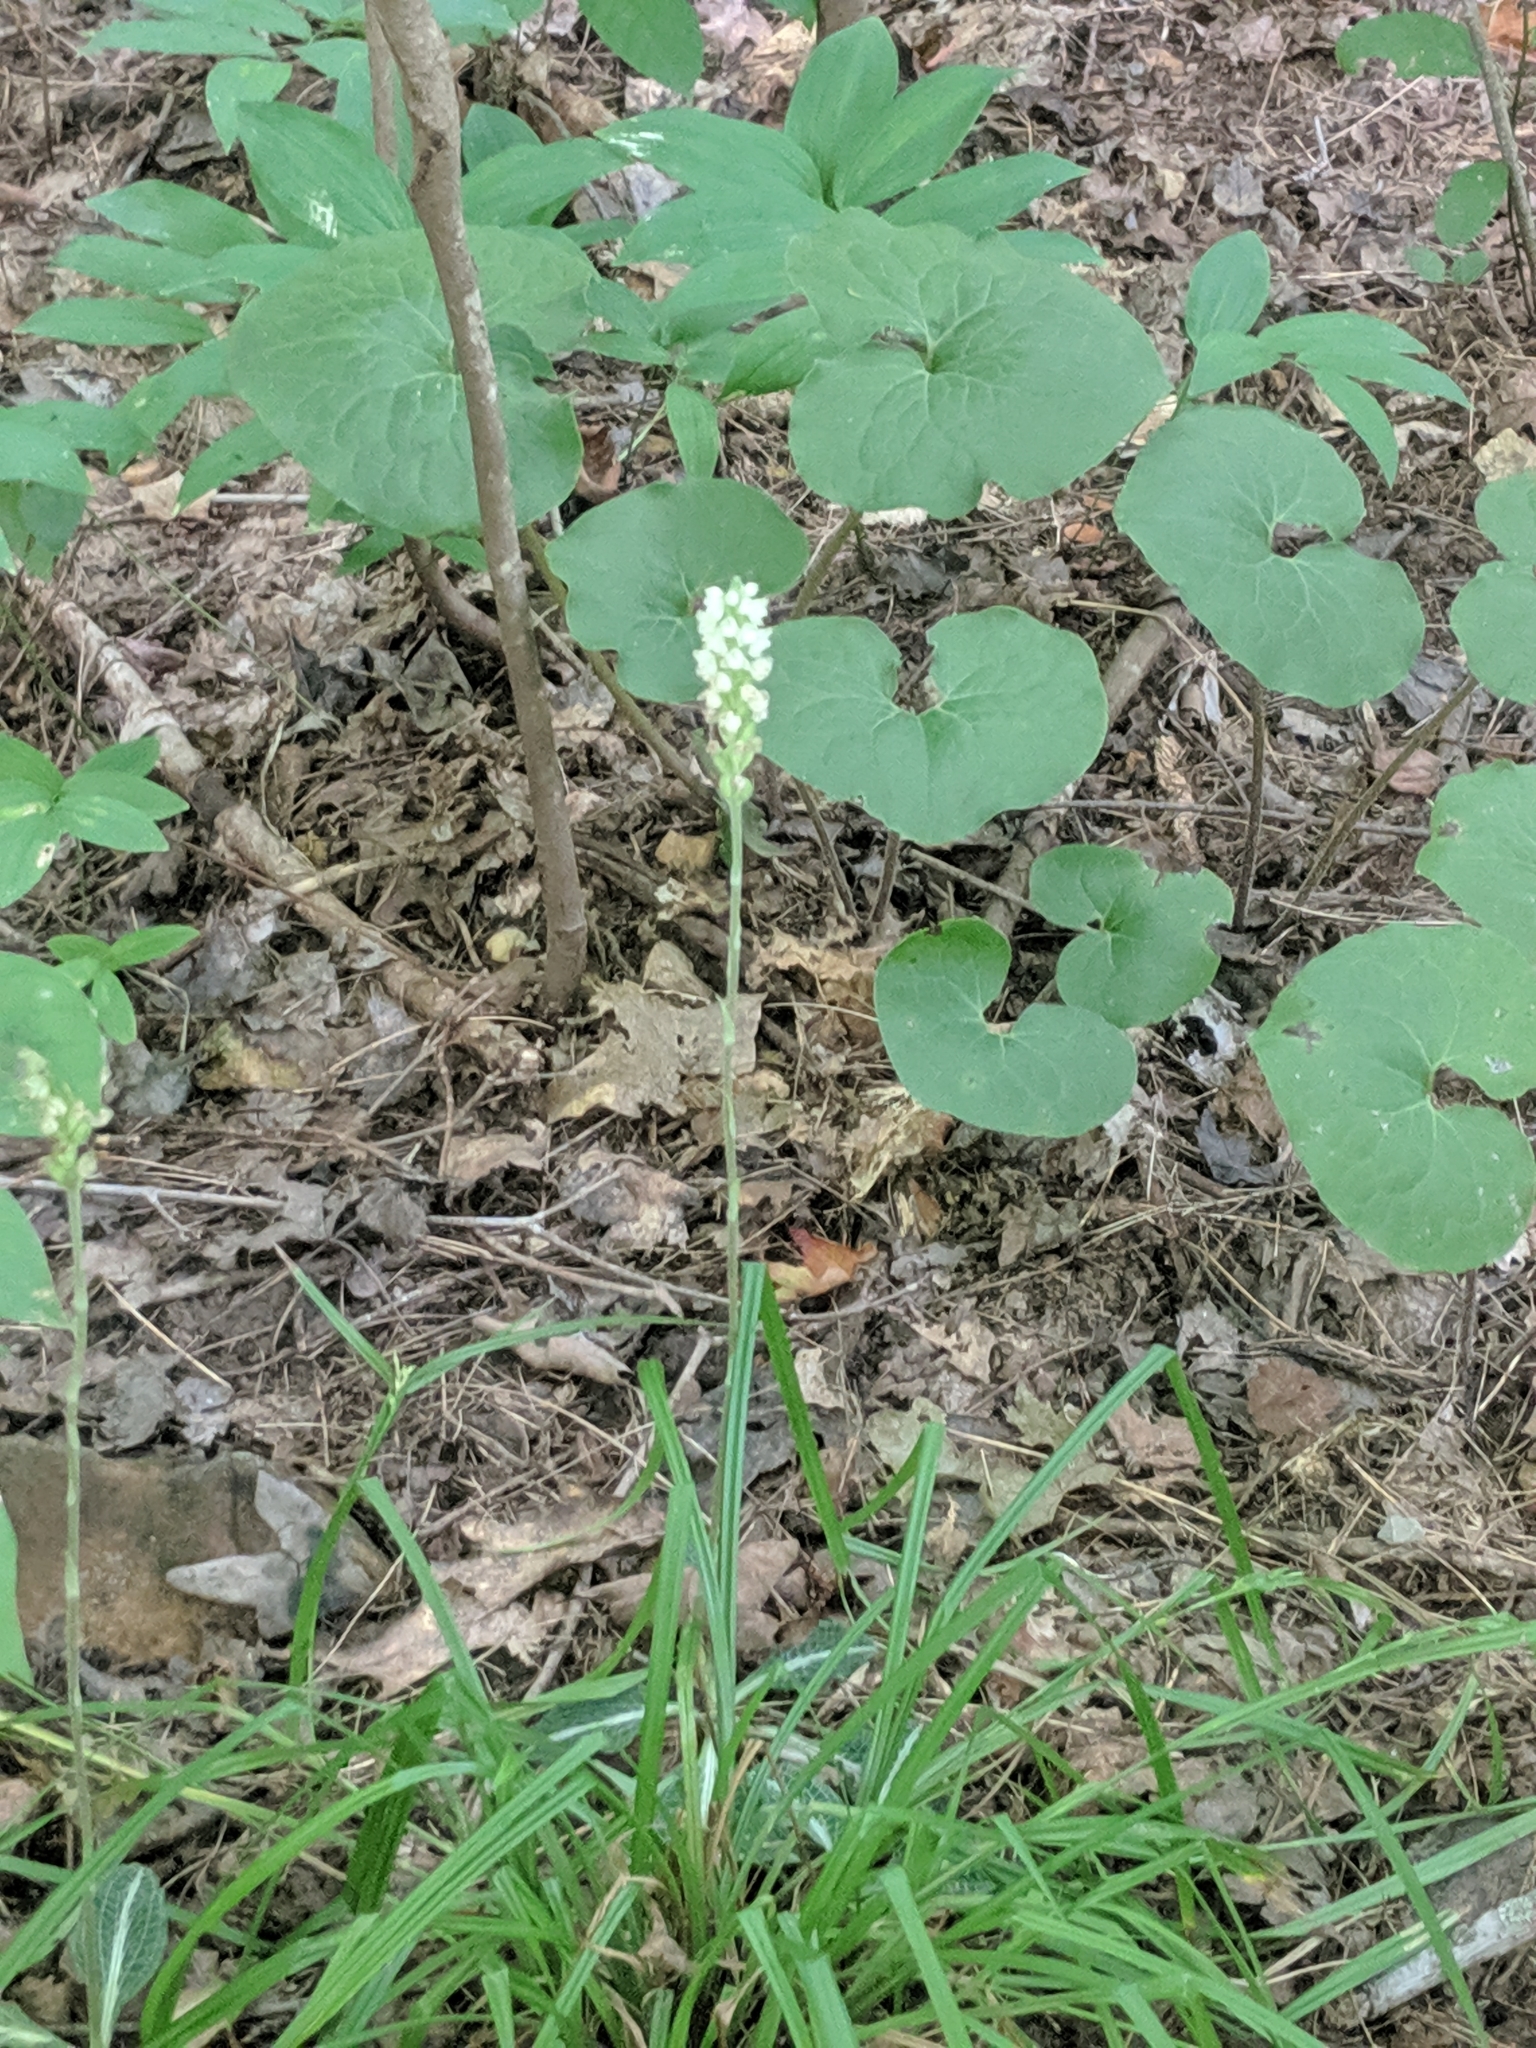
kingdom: Plantae
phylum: Tracheophyta
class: Liliopsida
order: Asparagales
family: Orchidaceae
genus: Goodyera
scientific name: Goodyera pubescens
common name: Downy rattlesnake-plantain
